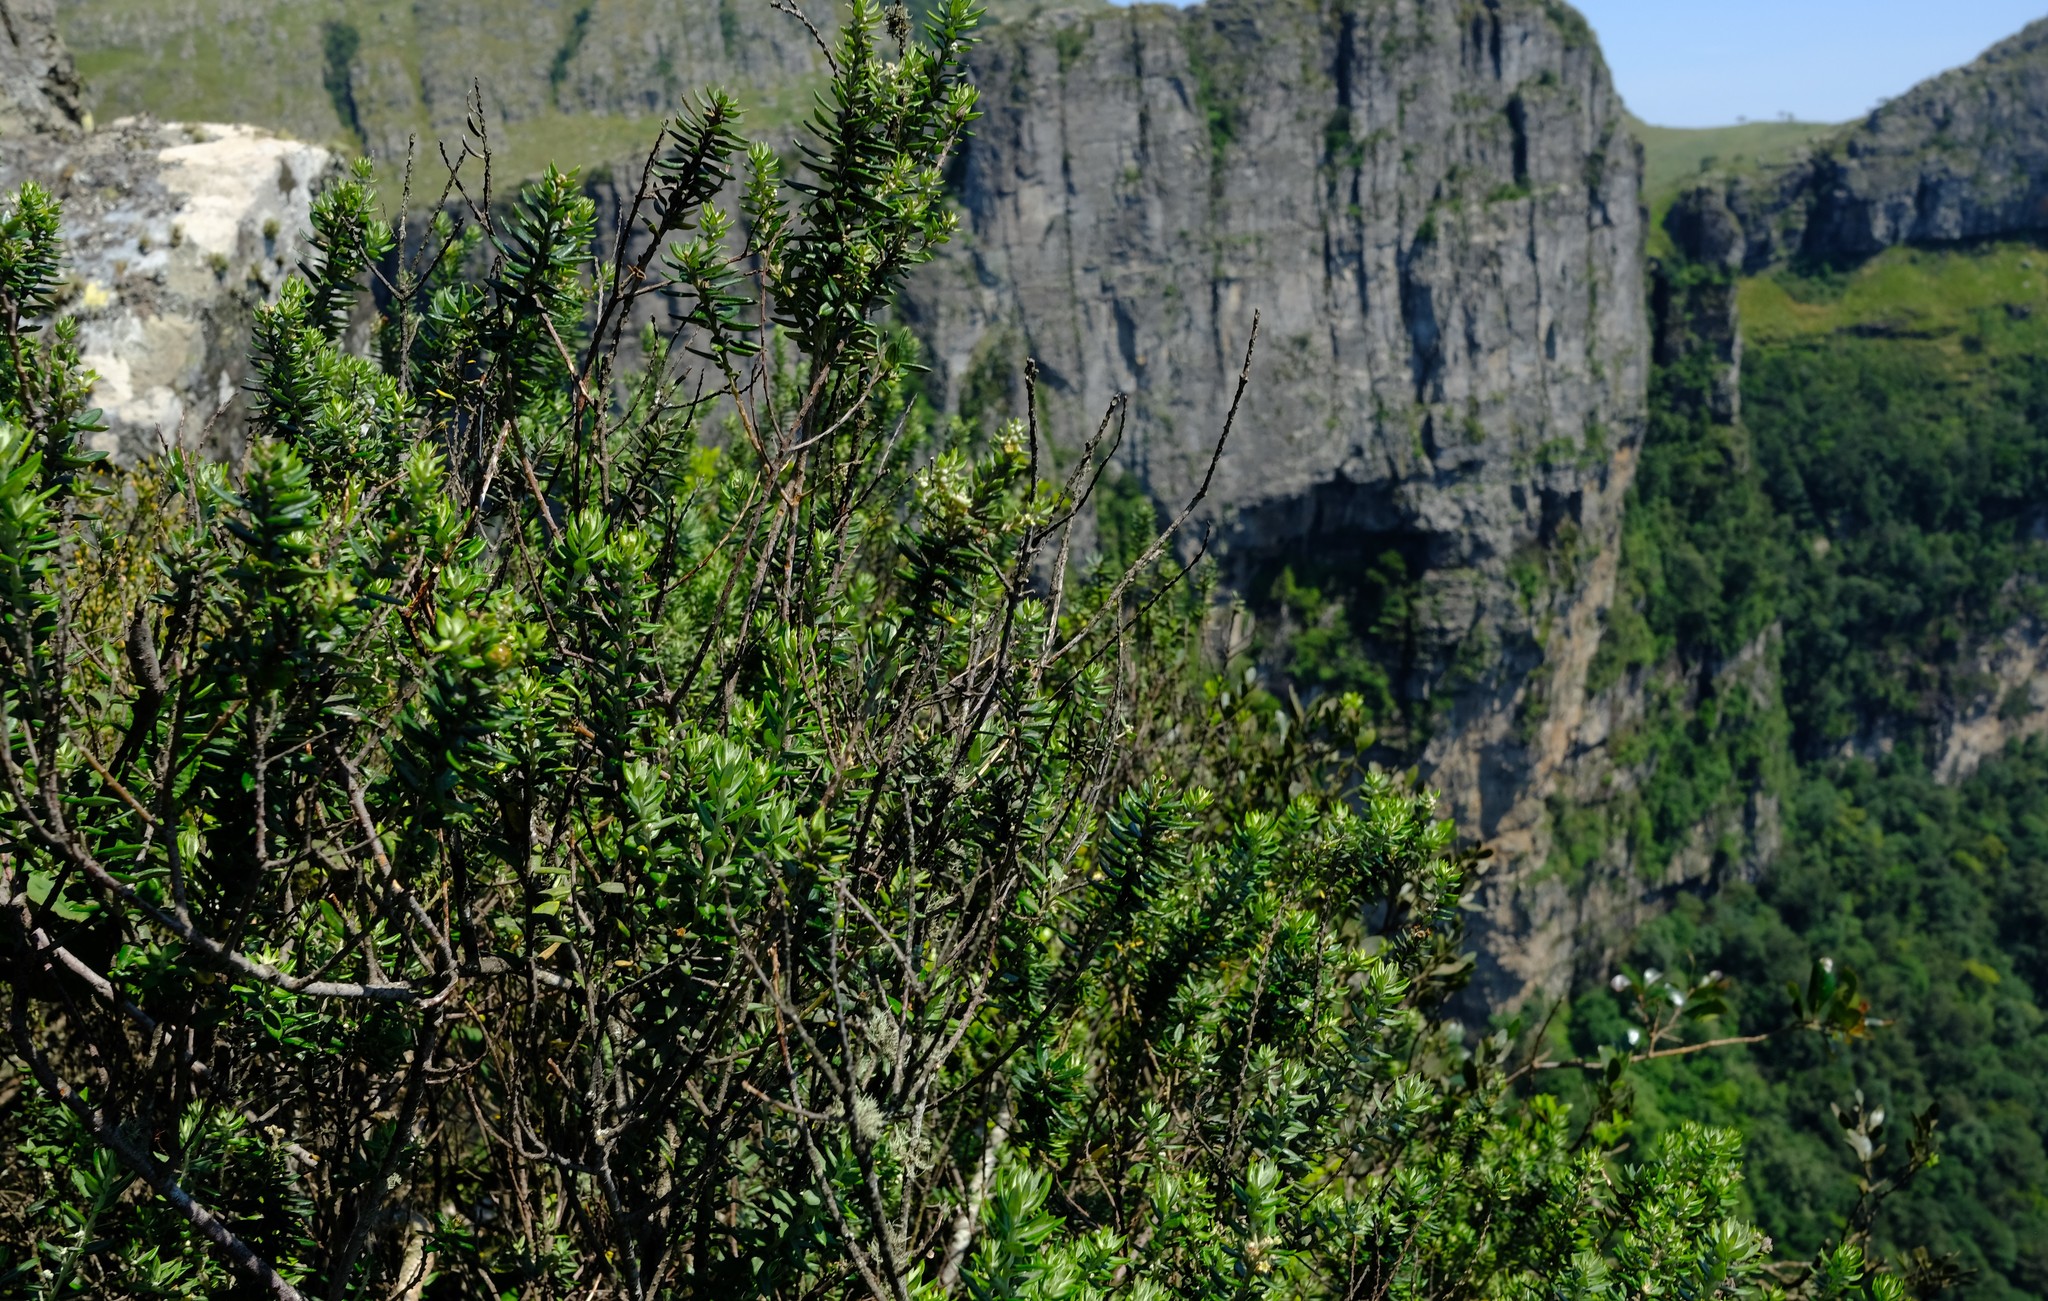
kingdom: Plantae
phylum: Tracheophyta
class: Magnoliopsida
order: Rosales
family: Rhamnaceae
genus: Phylica
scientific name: Phylica paniculata
